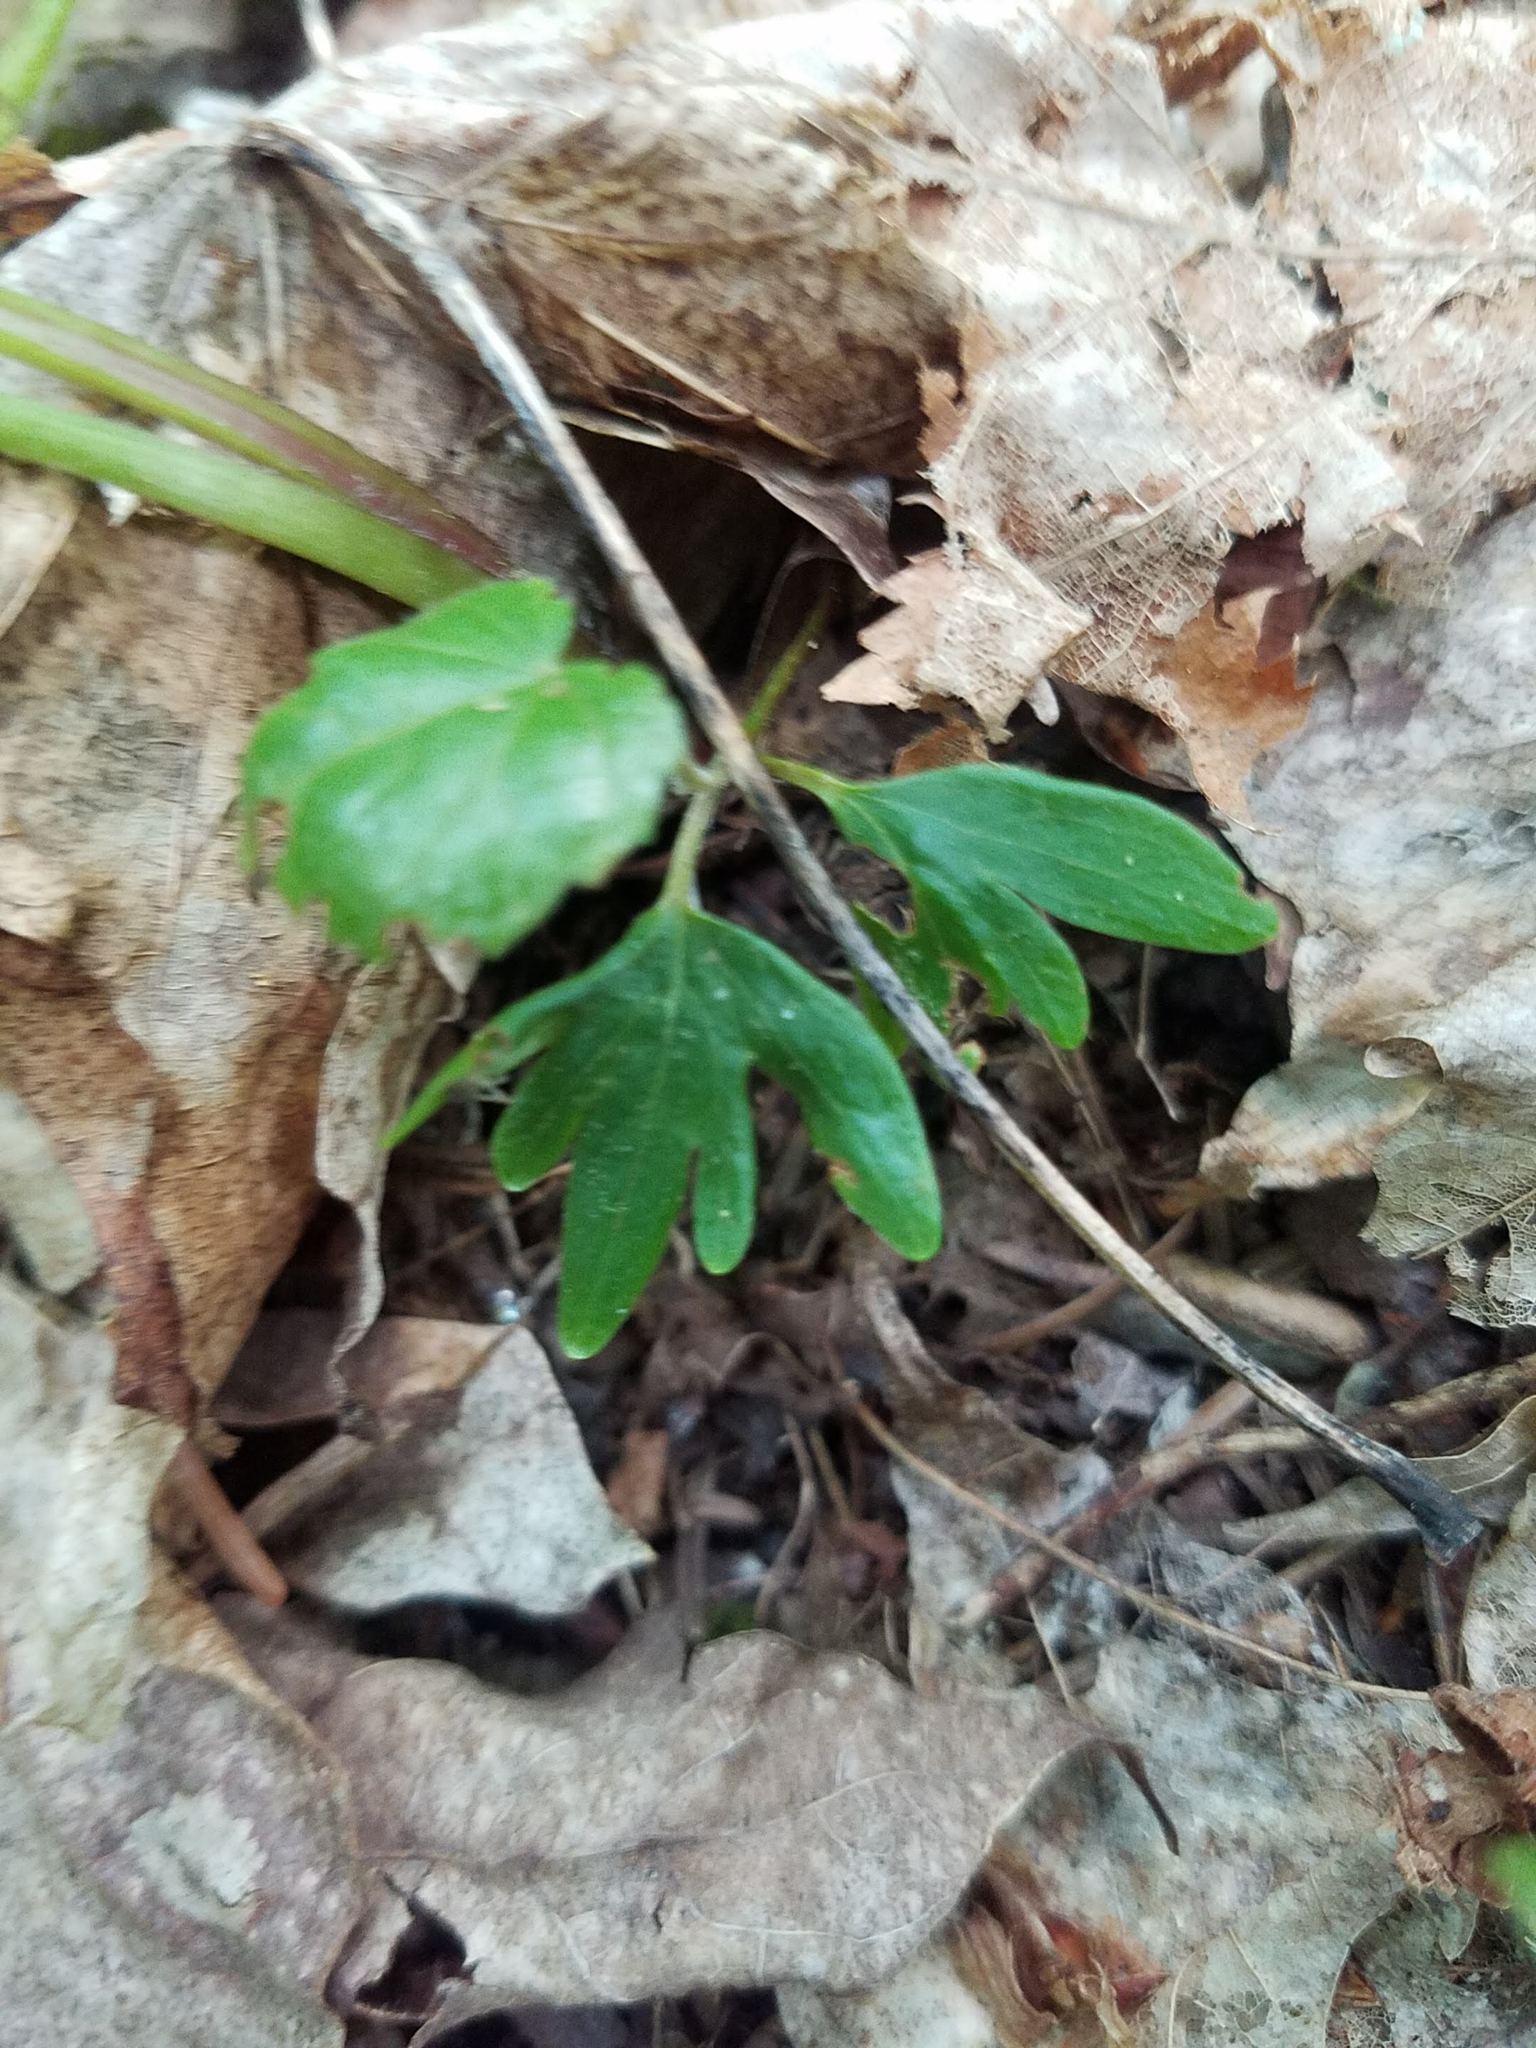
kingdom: Plantae
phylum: Tracheophyta
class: Magnoliopsida
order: Malvales
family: Malvaceae
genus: Tilia
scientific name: Tilia americana
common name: Basswood
